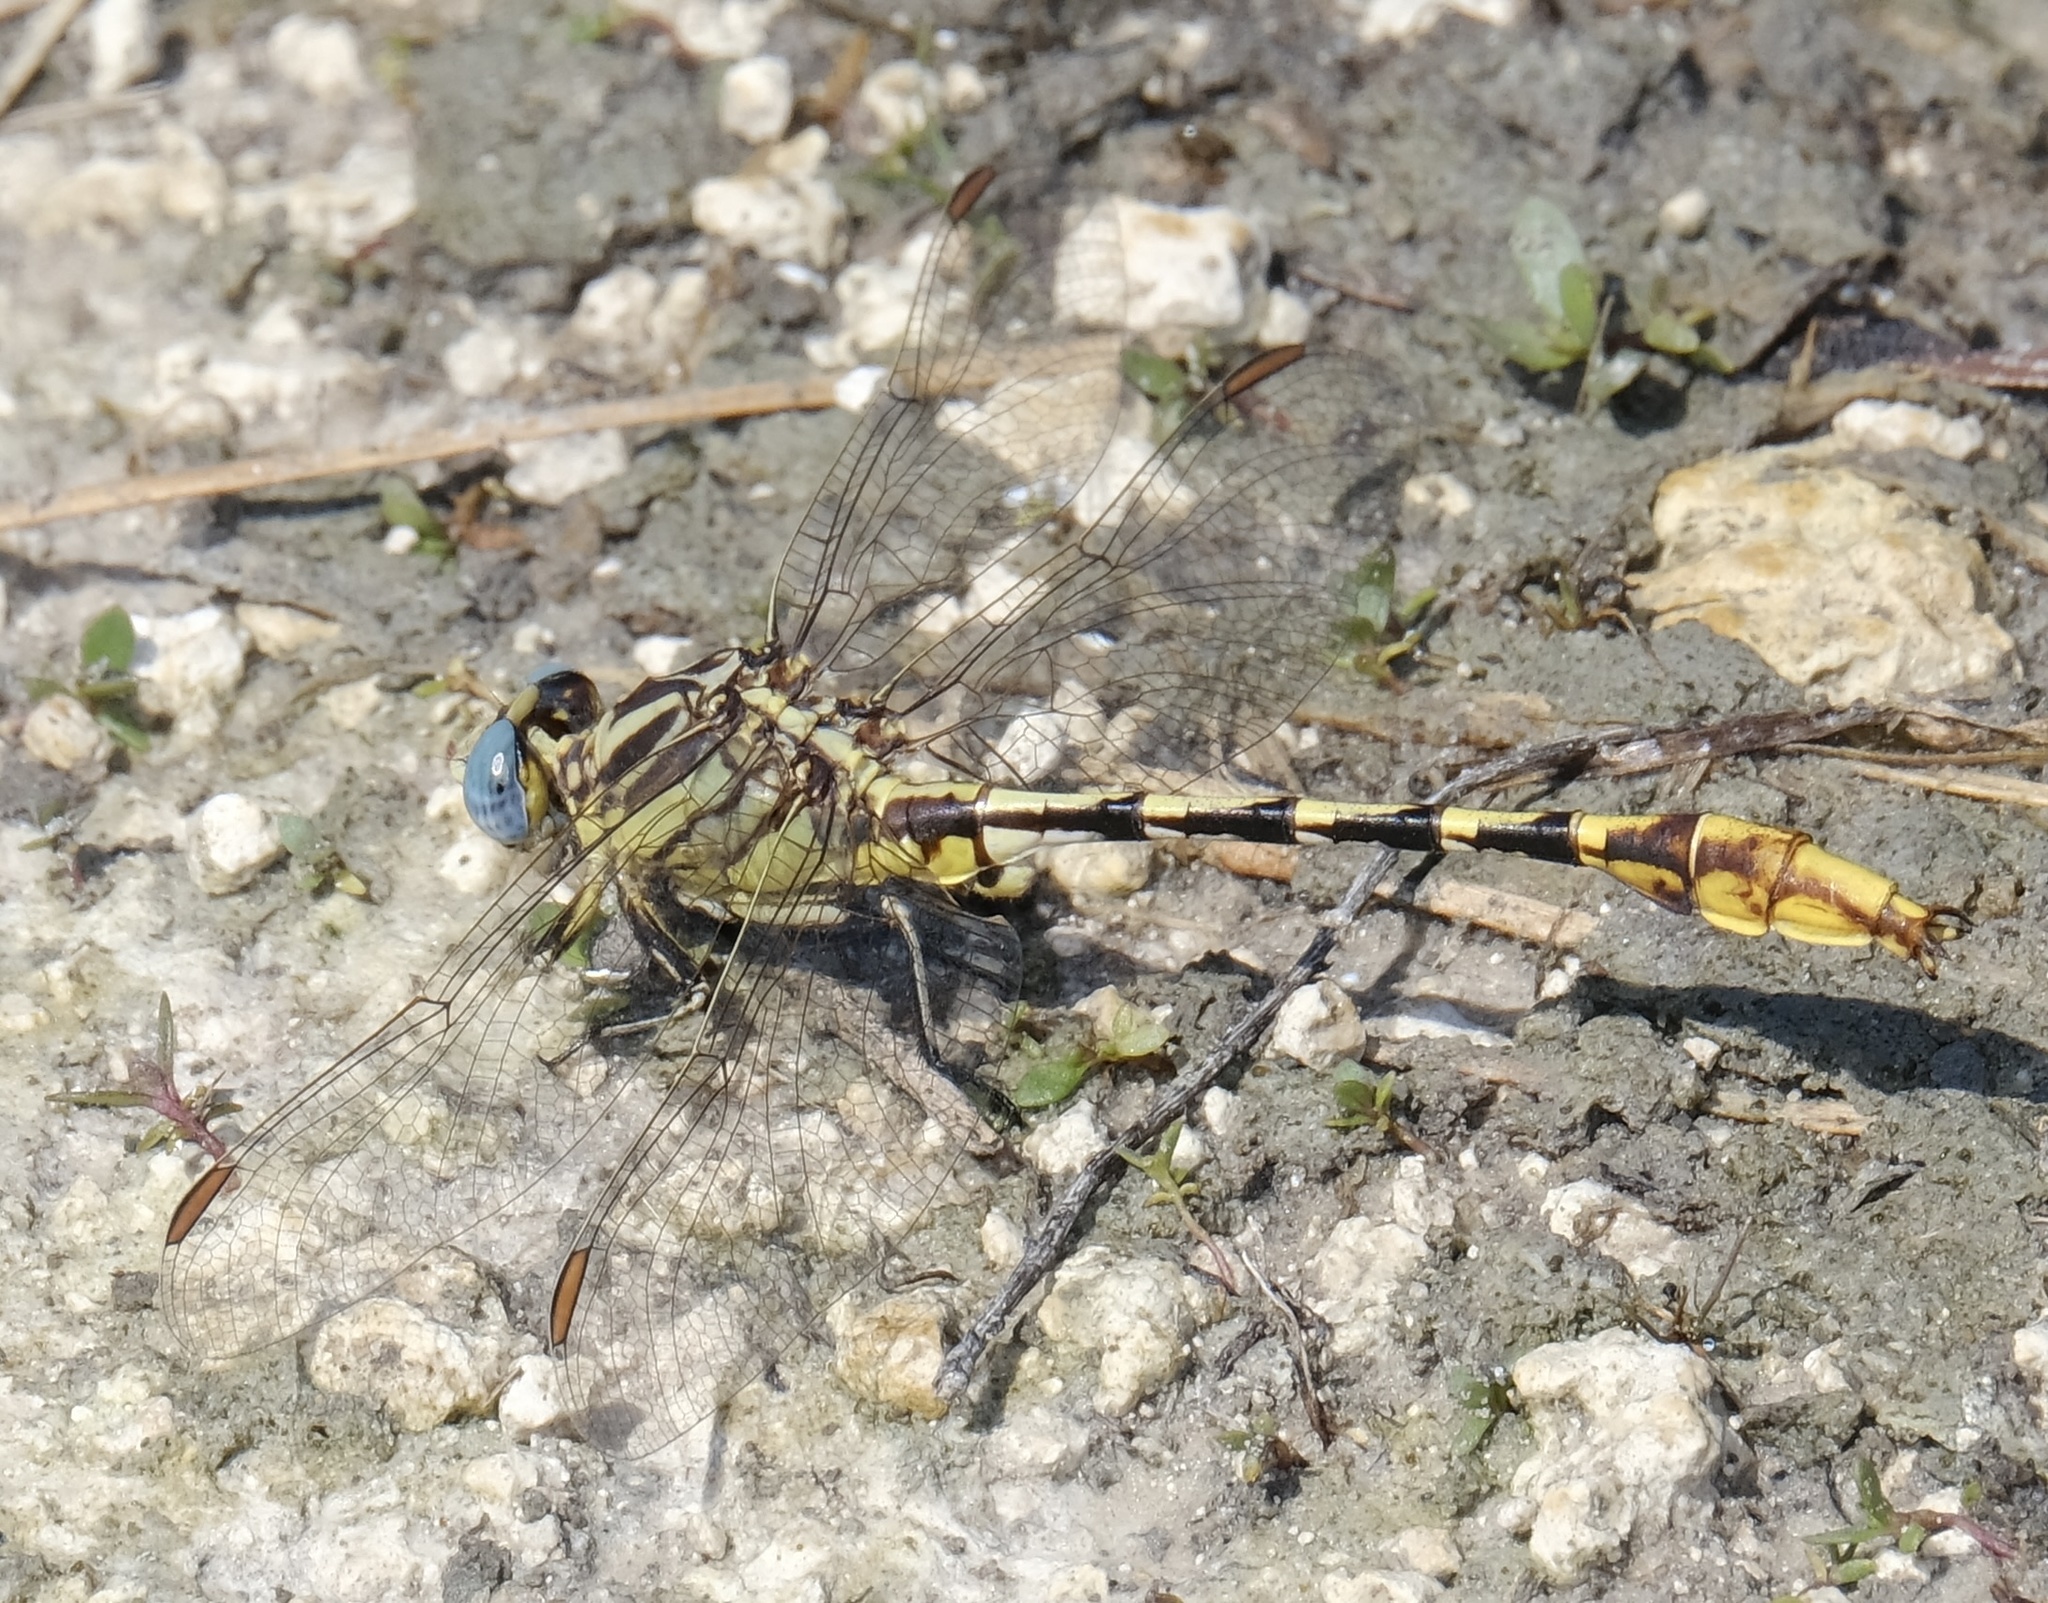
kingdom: Animalia
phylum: Arthropoda
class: Insecta
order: Odonata
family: Gomphidae
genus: Phanogomphus
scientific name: Phanogomphus militaris
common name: Sulphur-tipped clubtail
